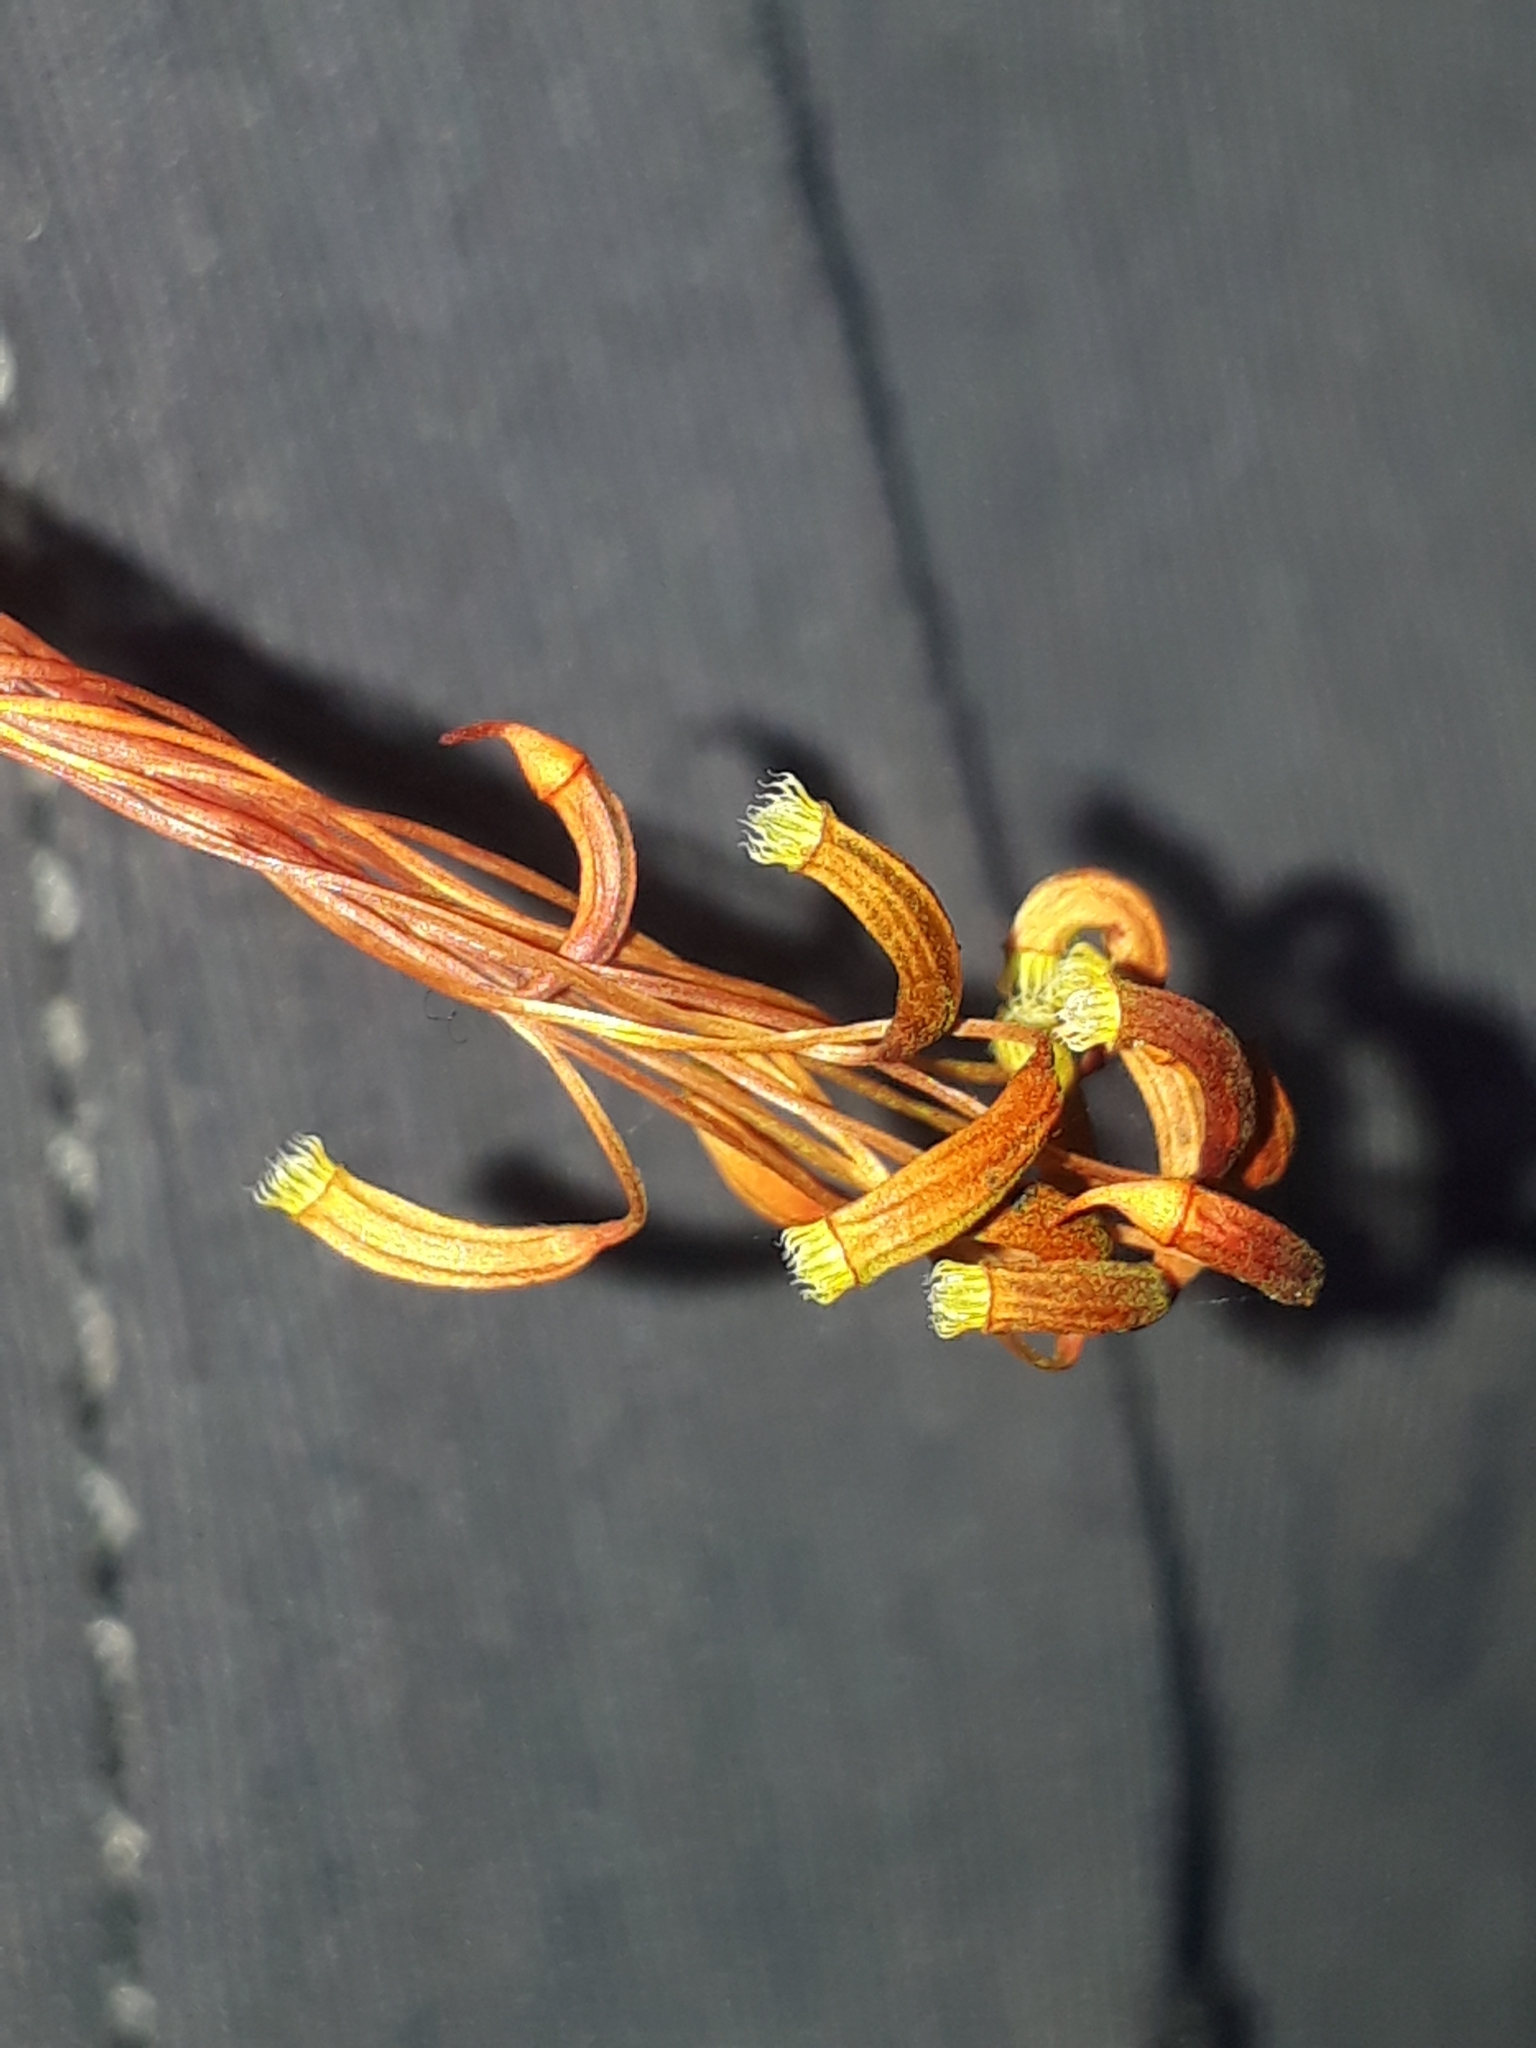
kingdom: Plantae
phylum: Bryophyta
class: Bryopsida
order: Hypnodendrales
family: Spiridentaceae
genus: Hypnodendron
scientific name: Hypnodendron marginatum
